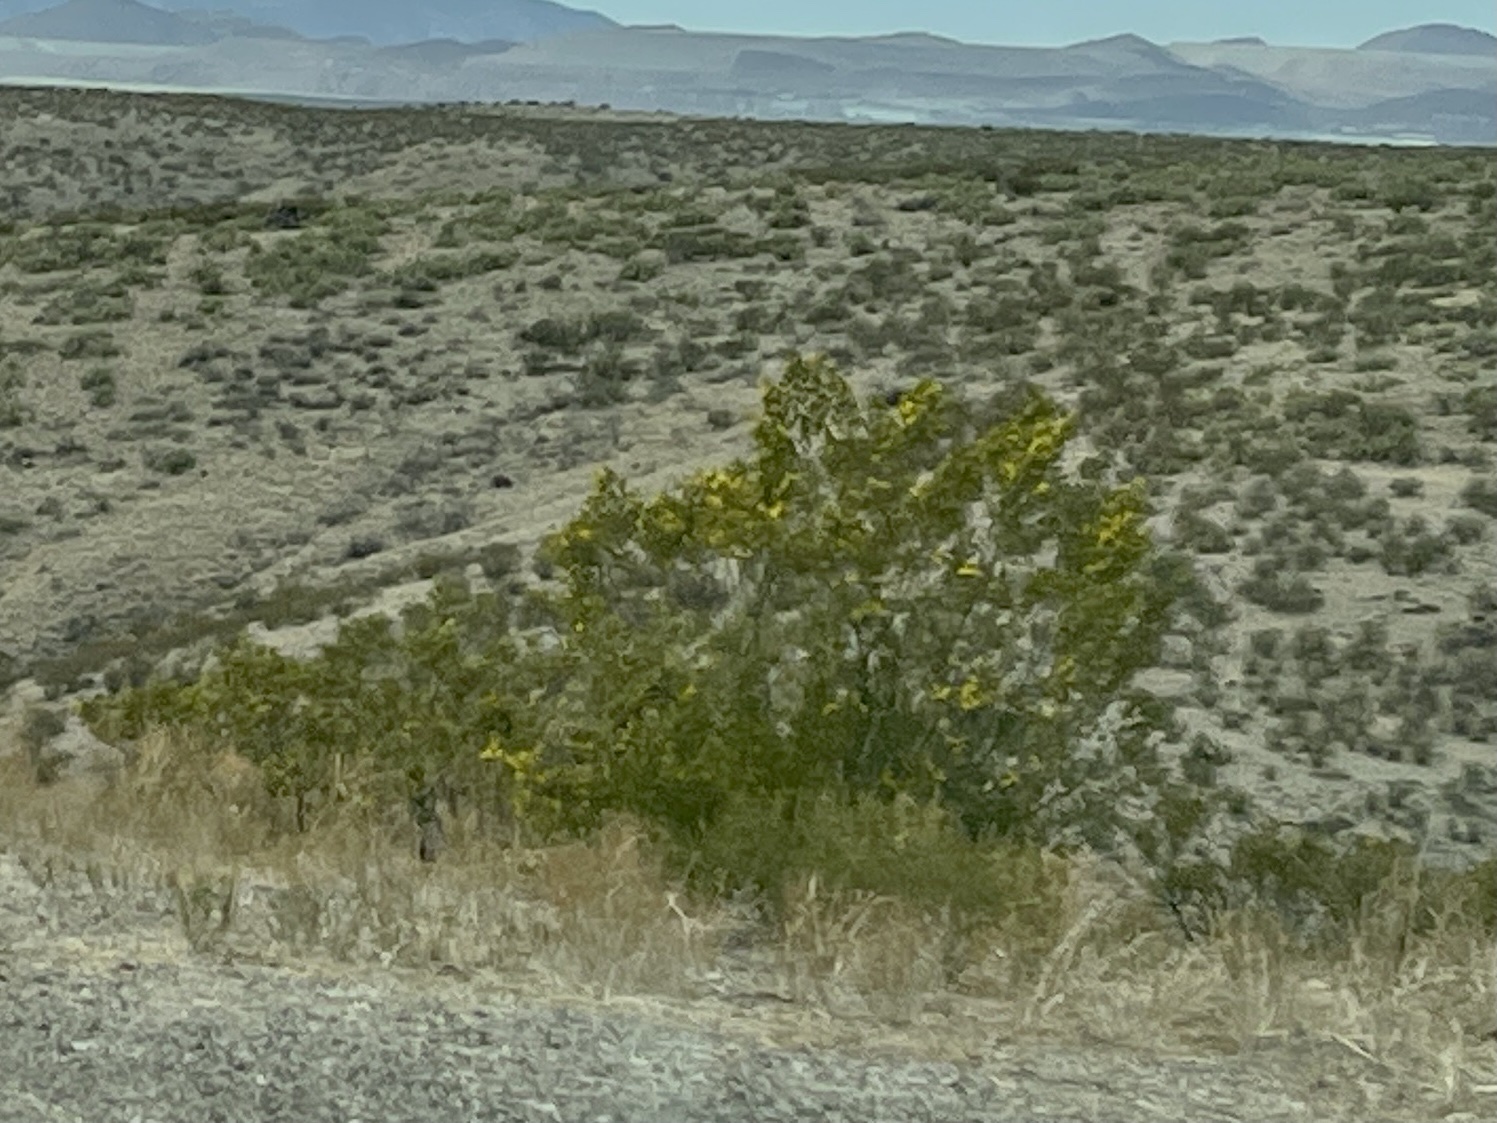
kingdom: Plantae
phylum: Tracheophyta
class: Magnoliopsida
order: Zygophyllales
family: Zygophyllaceae
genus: Larrea
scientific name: Larrea tridentata
